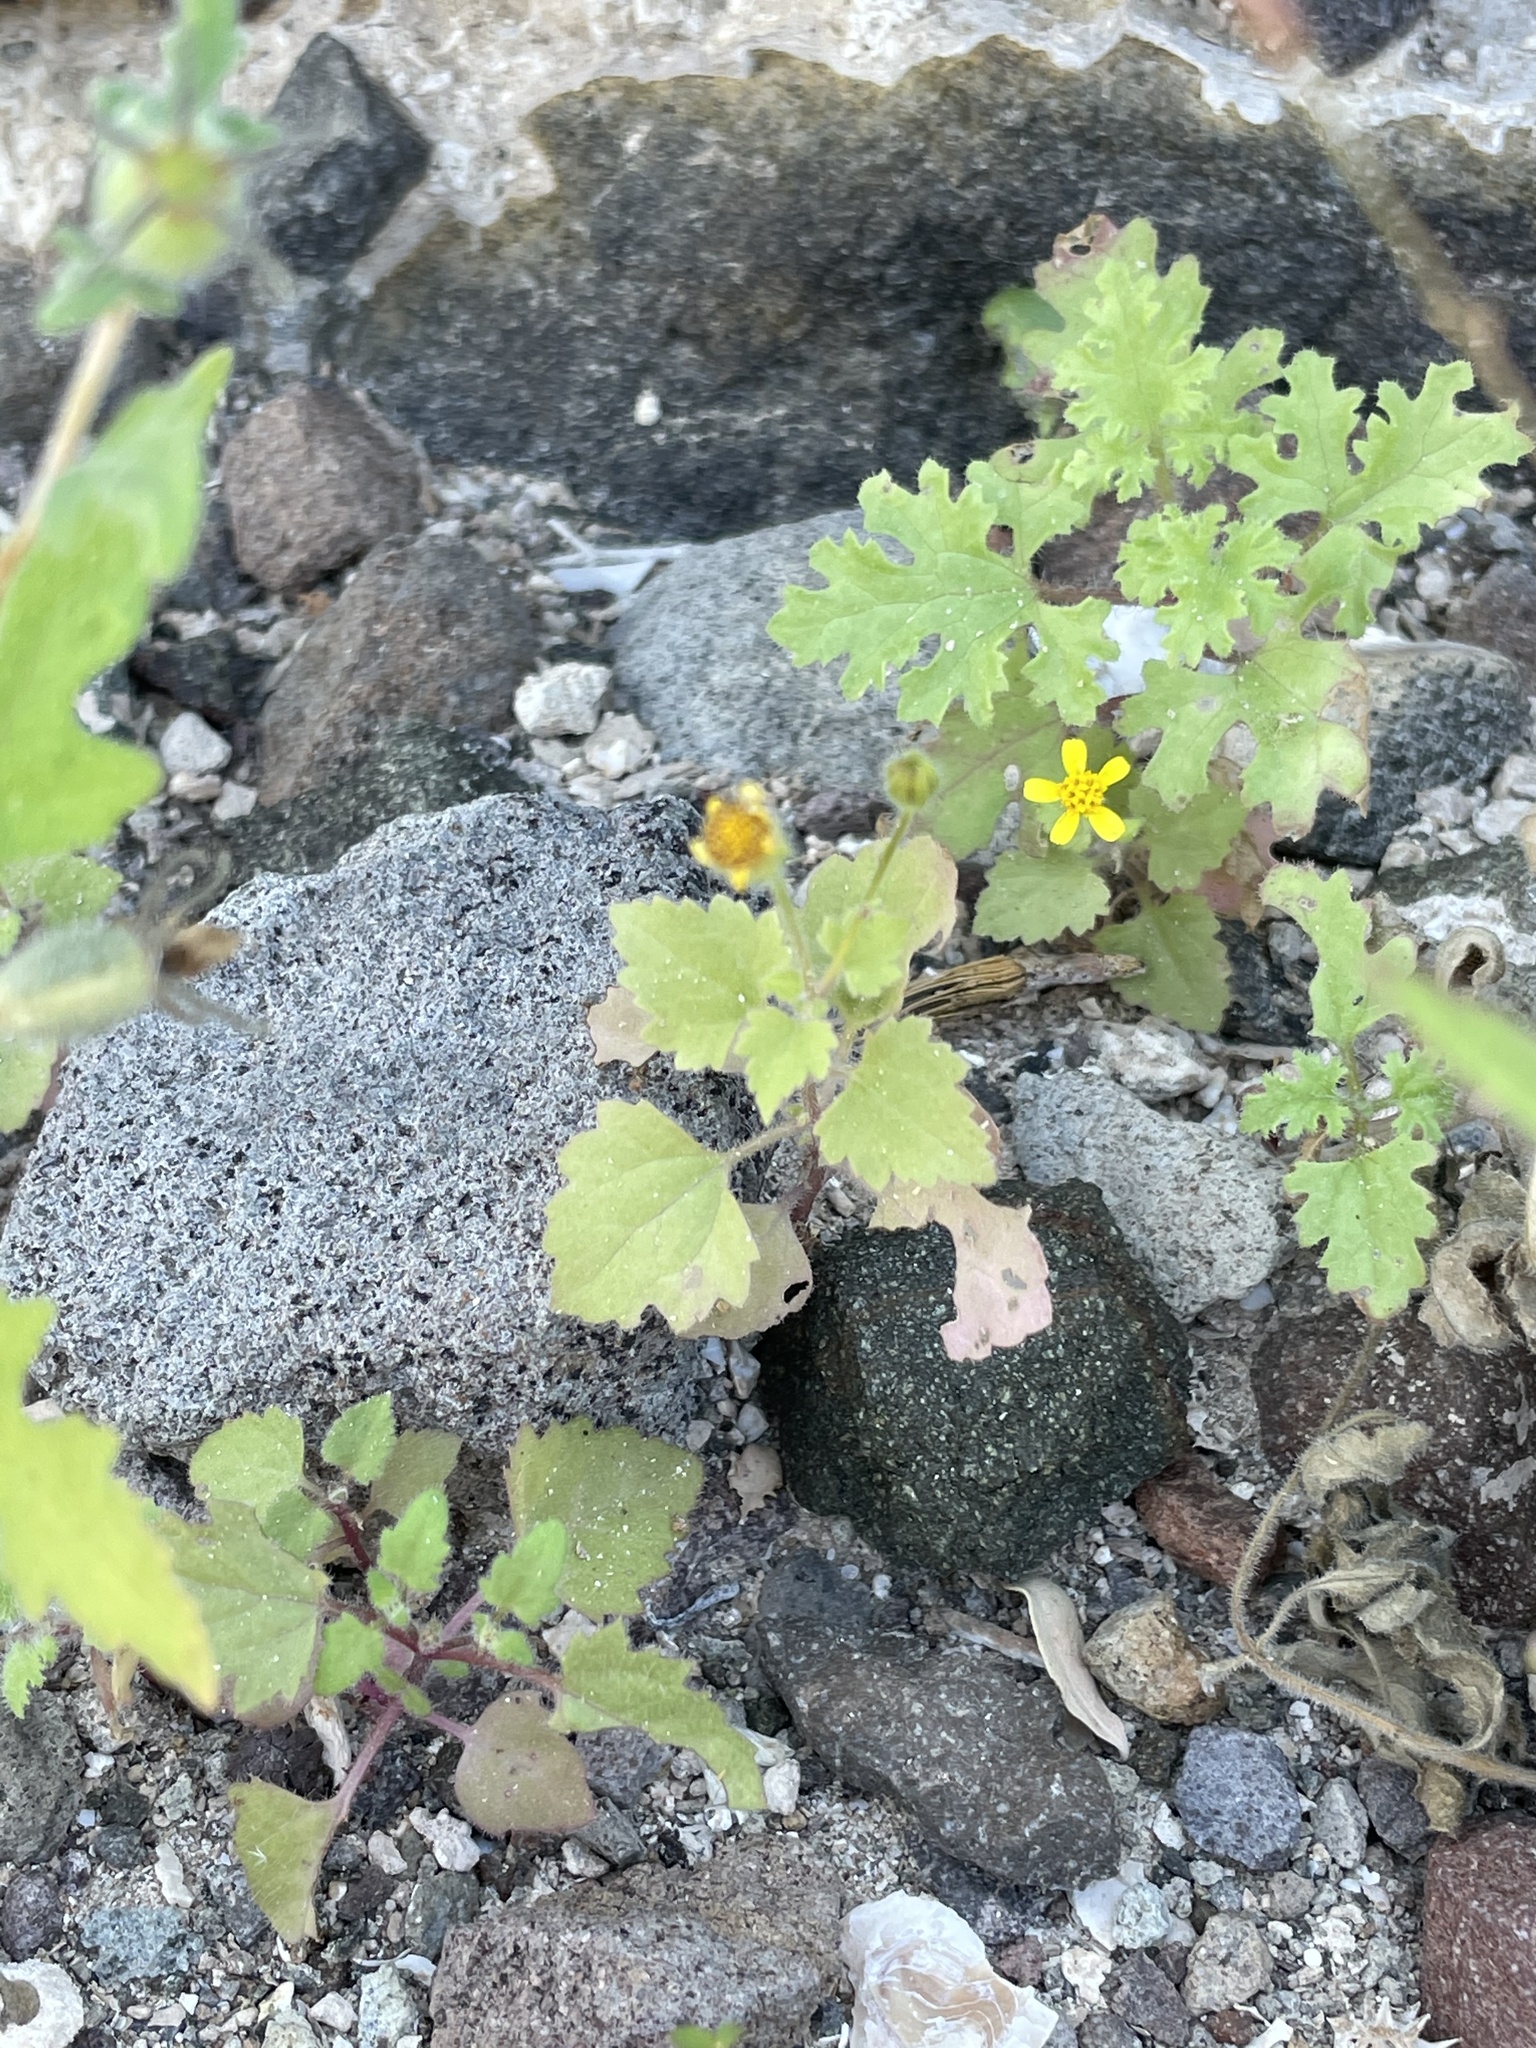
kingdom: Plantae
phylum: Tracheophyta
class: Magnoliopsida
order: Asterales
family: Asteraceae
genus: Perityle
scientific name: Perityle californica
